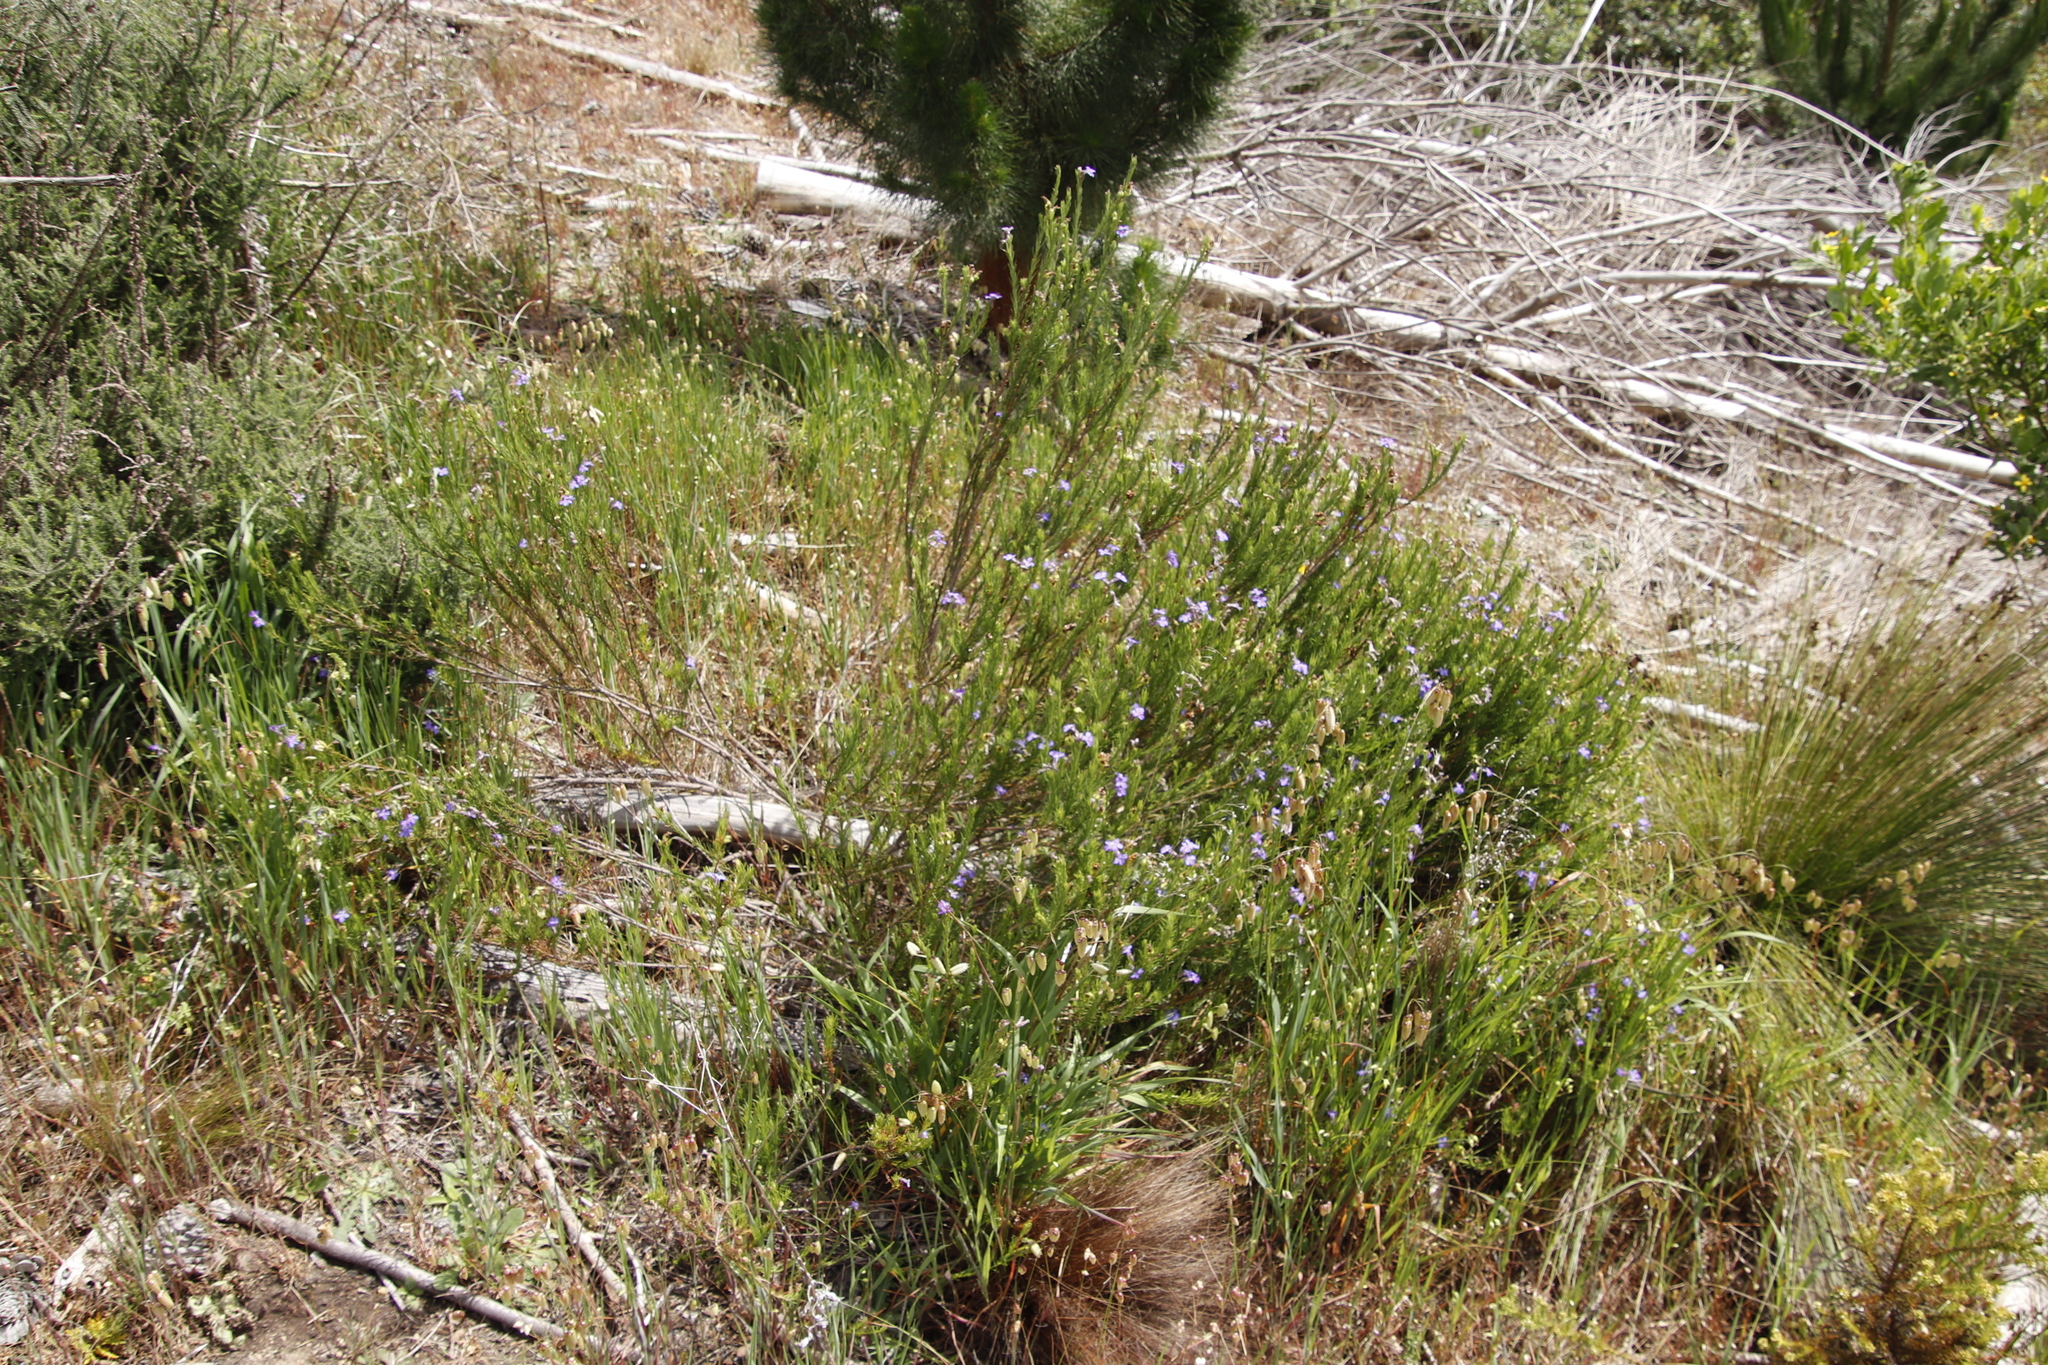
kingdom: Plantae
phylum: Tracheophyta
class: Magnoliopsida
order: Asterales
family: Campanulaceae
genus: Lobelia
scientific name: Lobelia pinifolia
